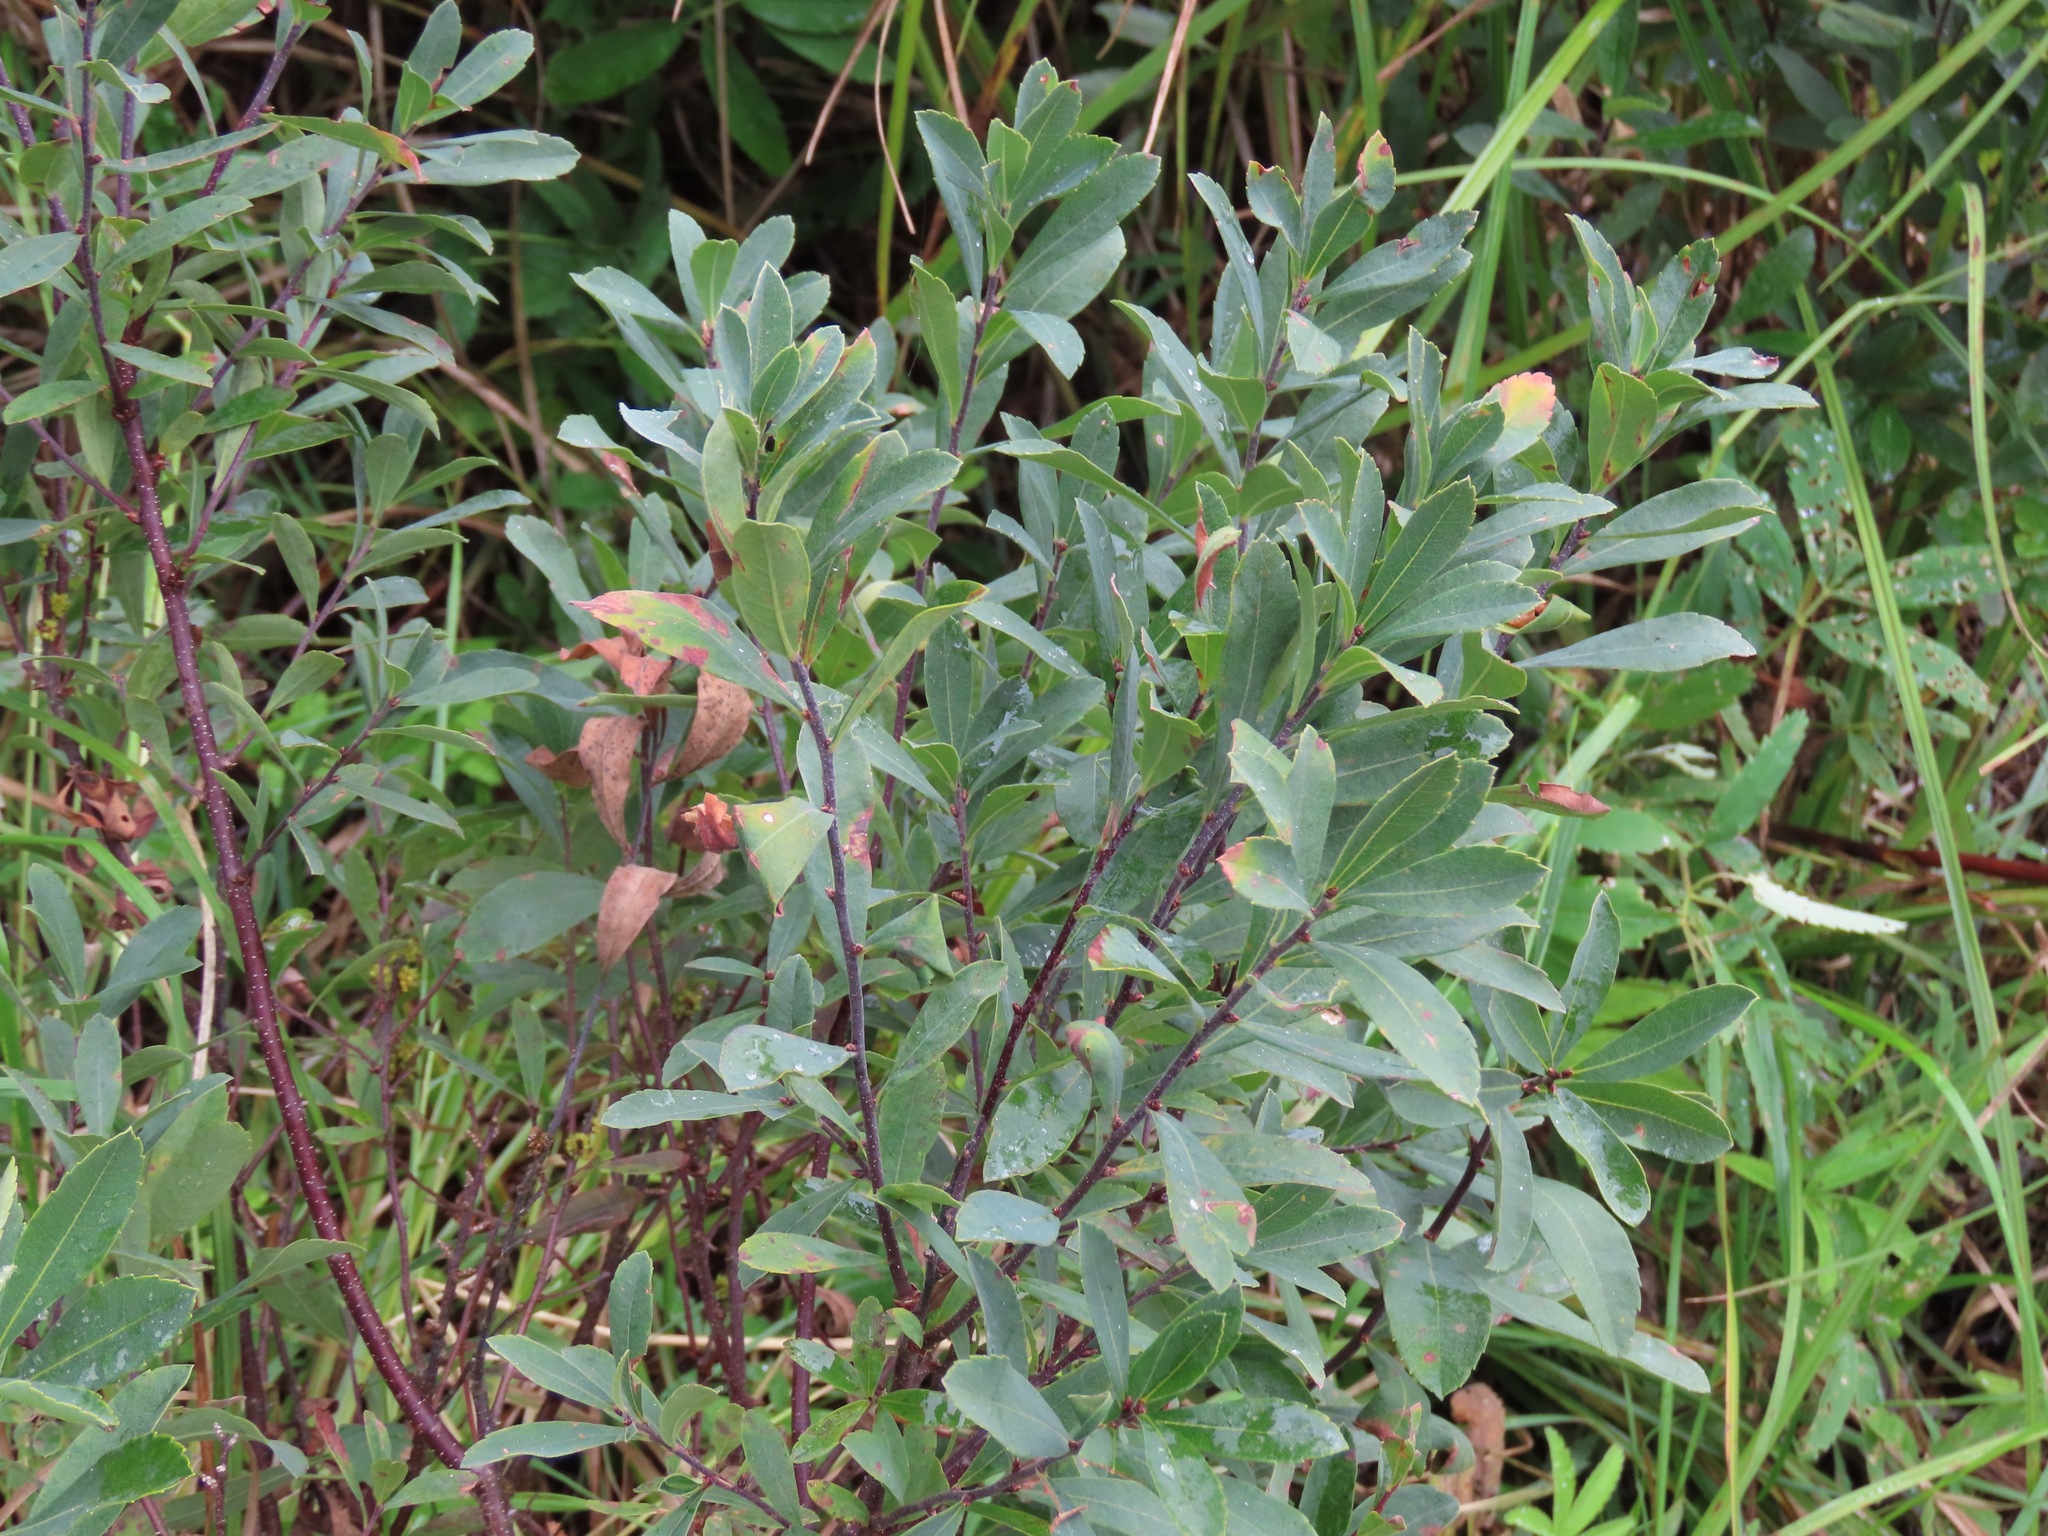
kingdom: Plantae
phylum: Tracheophyta
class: Magnoliopsida
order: Rosales
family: Rosaceae
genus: Spiraea
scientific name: Spiraea douglasii
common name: Steeplebush
